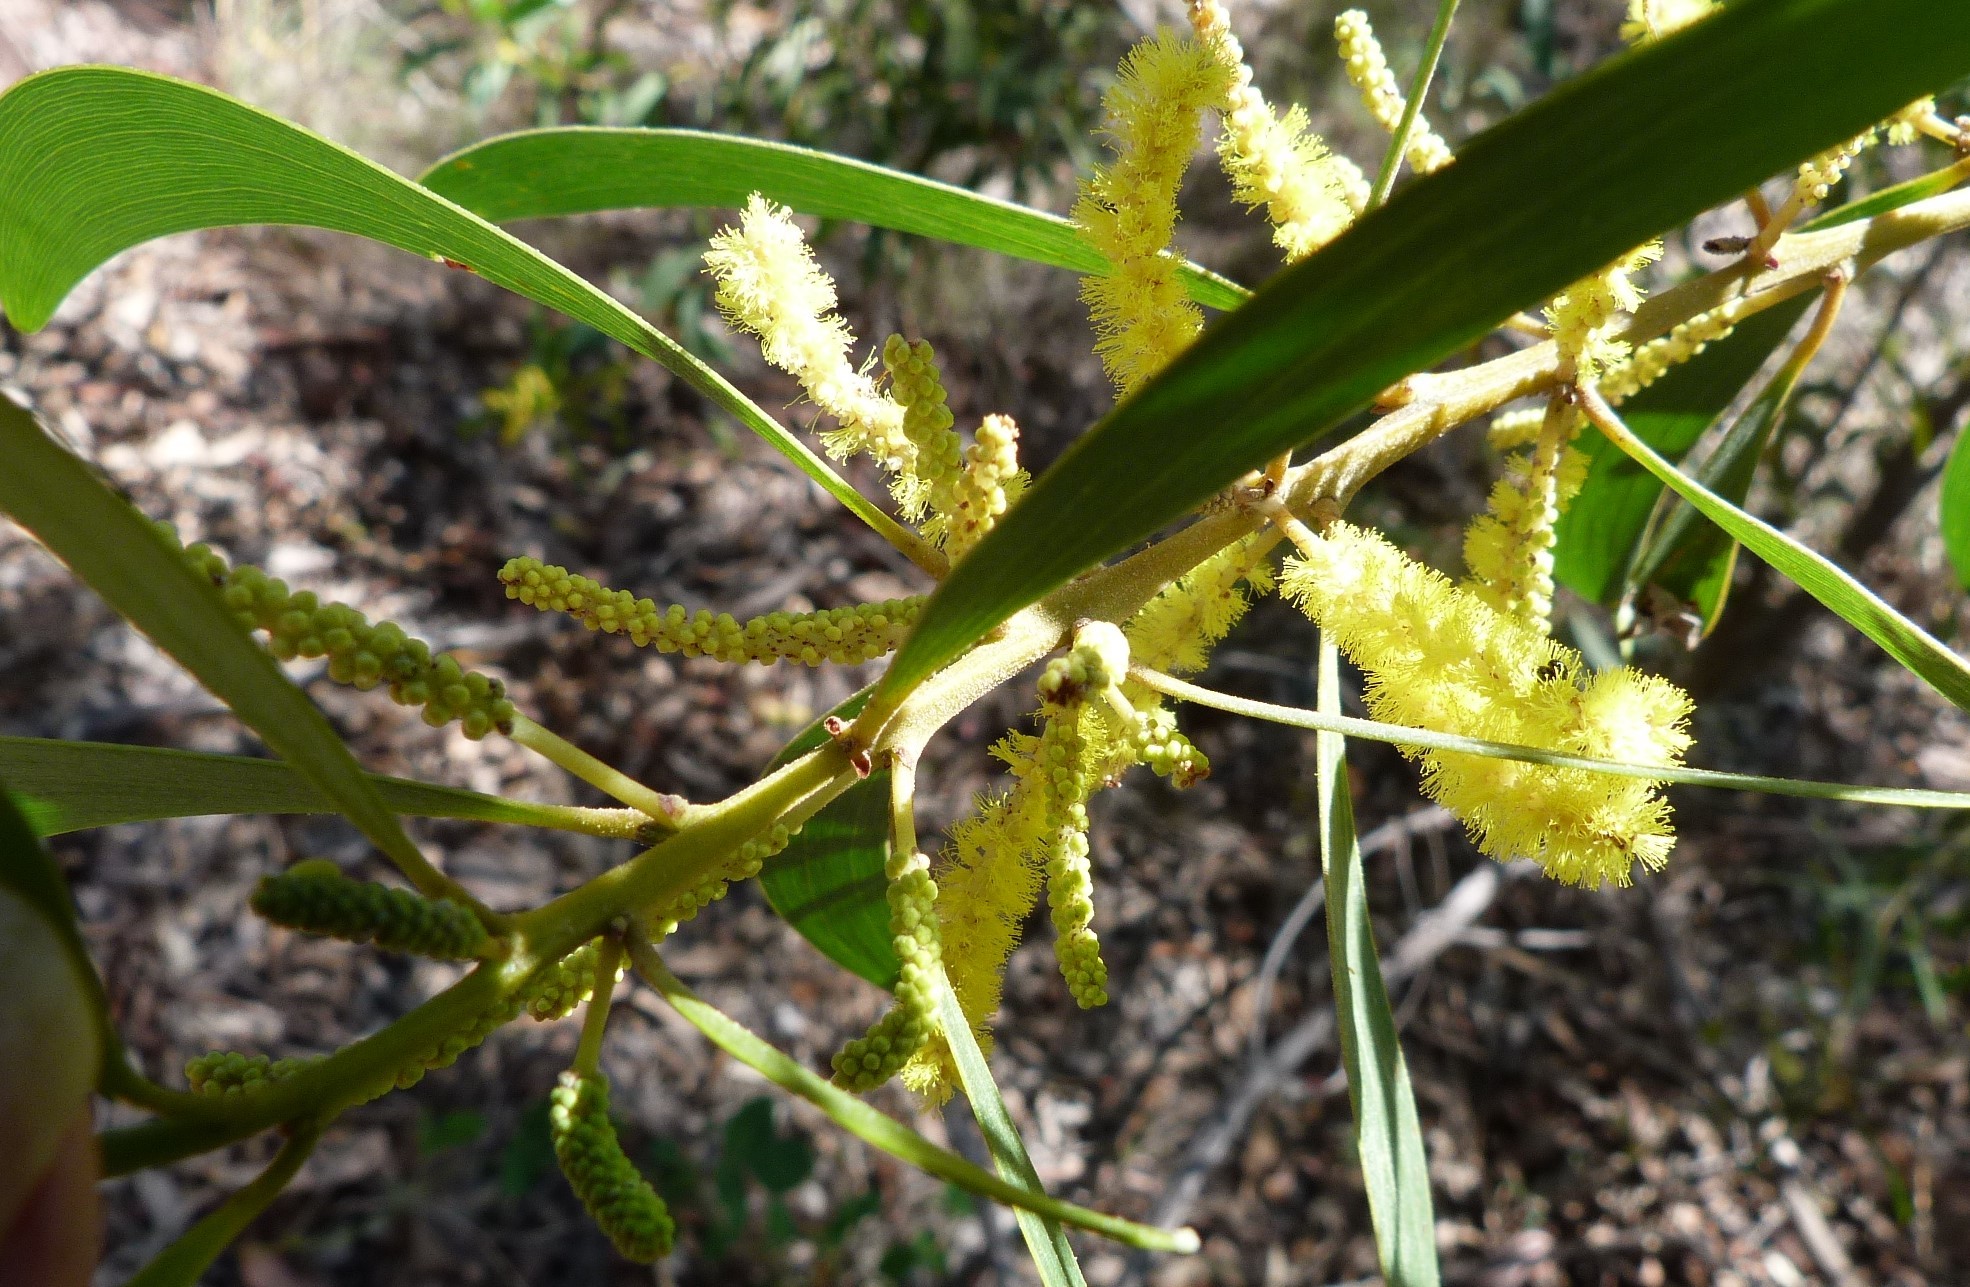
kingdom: Plantae
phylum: Tracheophyta
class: Magnoliopsida
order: Fabales
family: Fabaceae
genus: Acacia
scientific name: Acacia disparrima
